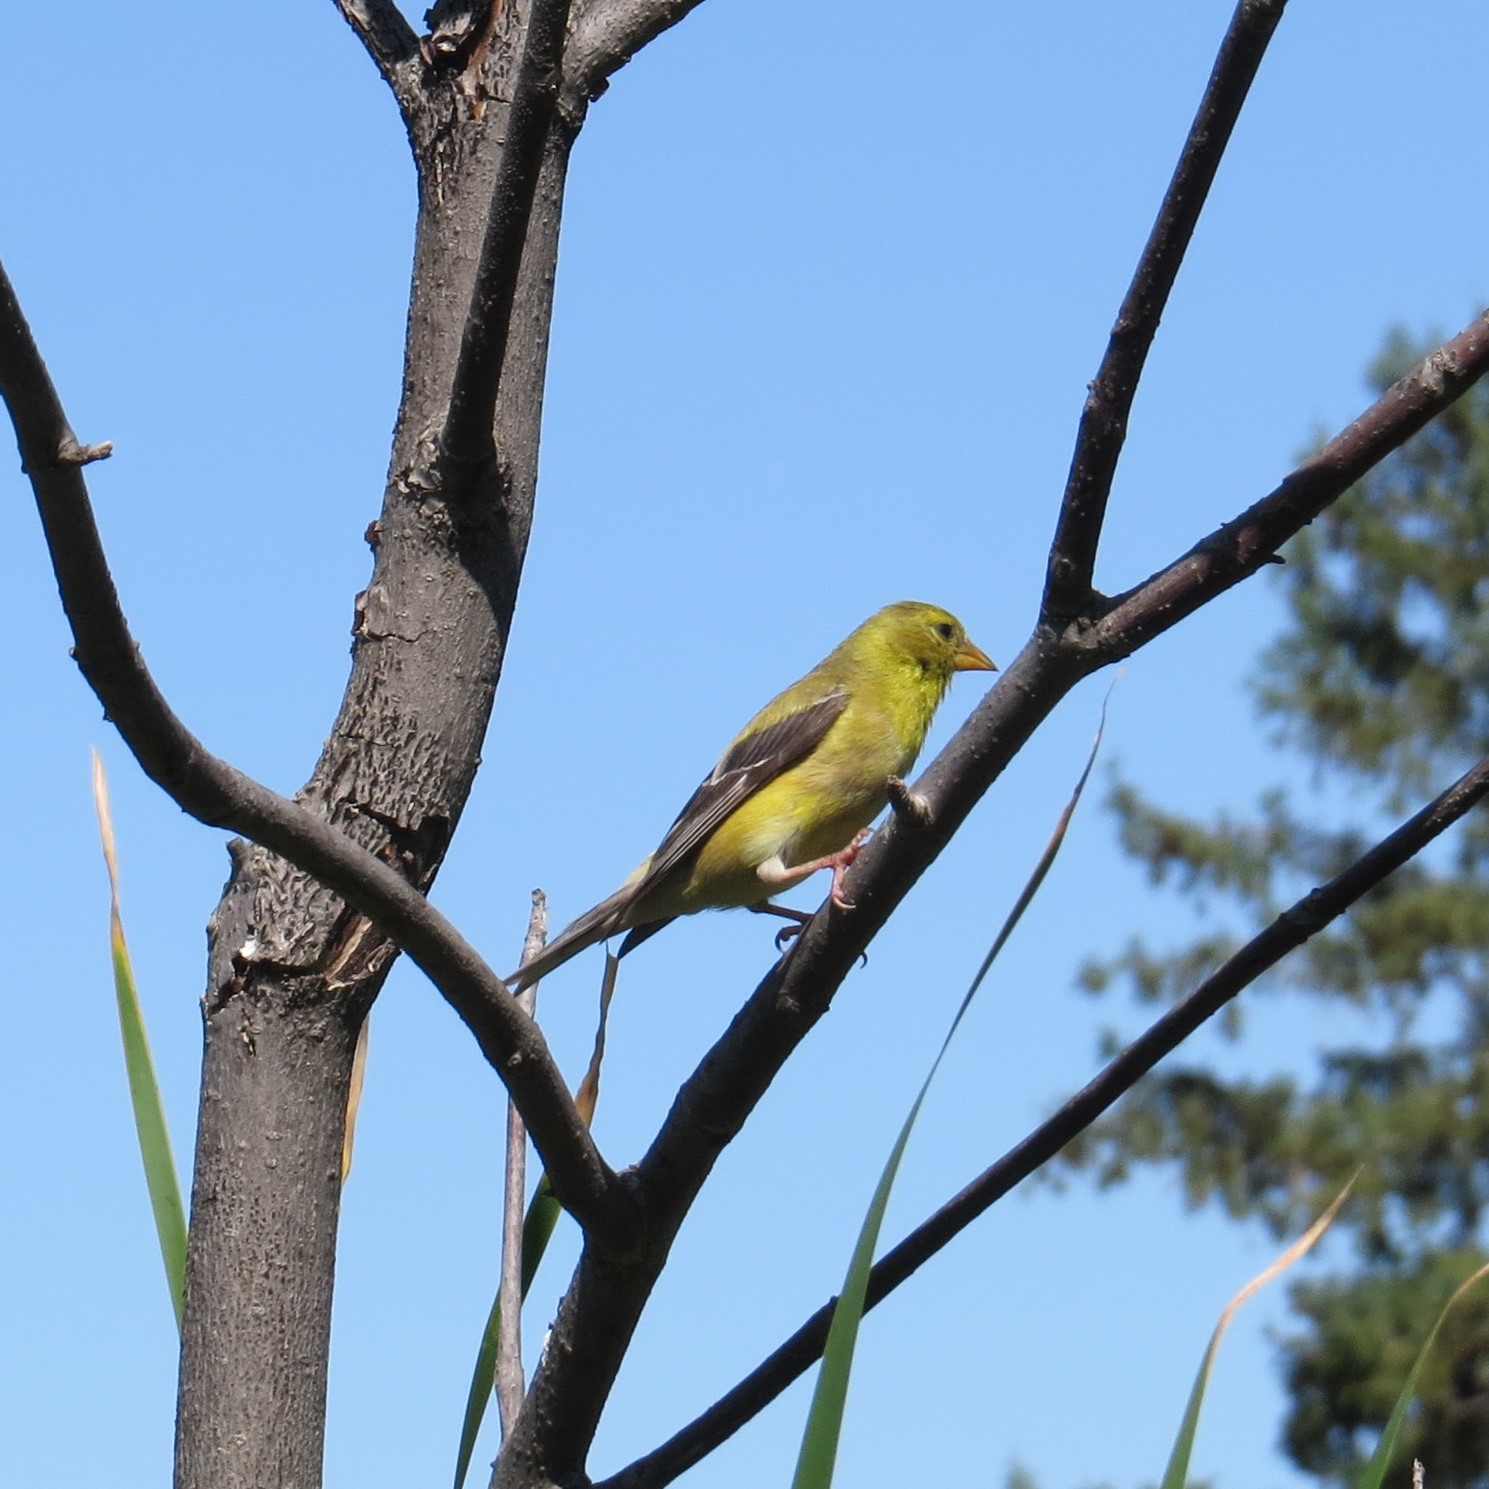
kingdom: Animalia
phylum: Chordata
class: Aves
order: Passeriformes
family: Fringillidae
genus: Spinus
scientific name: Spinus tristis
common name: American goldfinch
